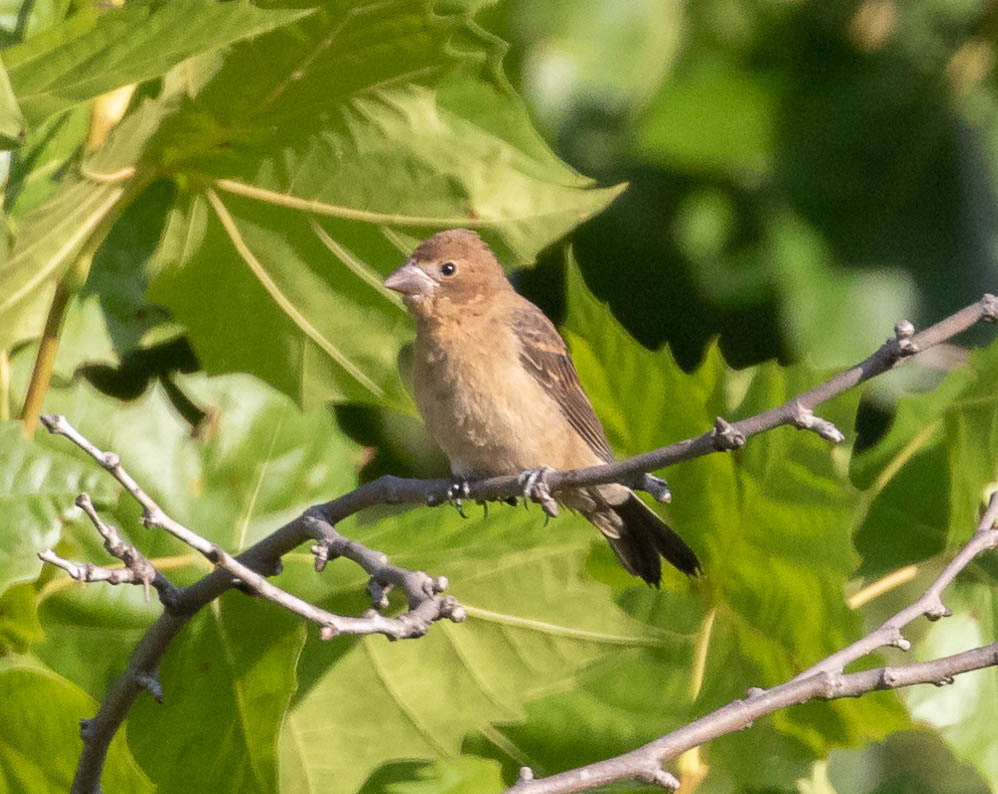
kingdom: Animalia
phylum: Chordata
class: Aves
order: Passeriformes
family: Cardinalidae
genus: Passerina
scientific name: Passerina caerulea
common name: Blue grosbeak
